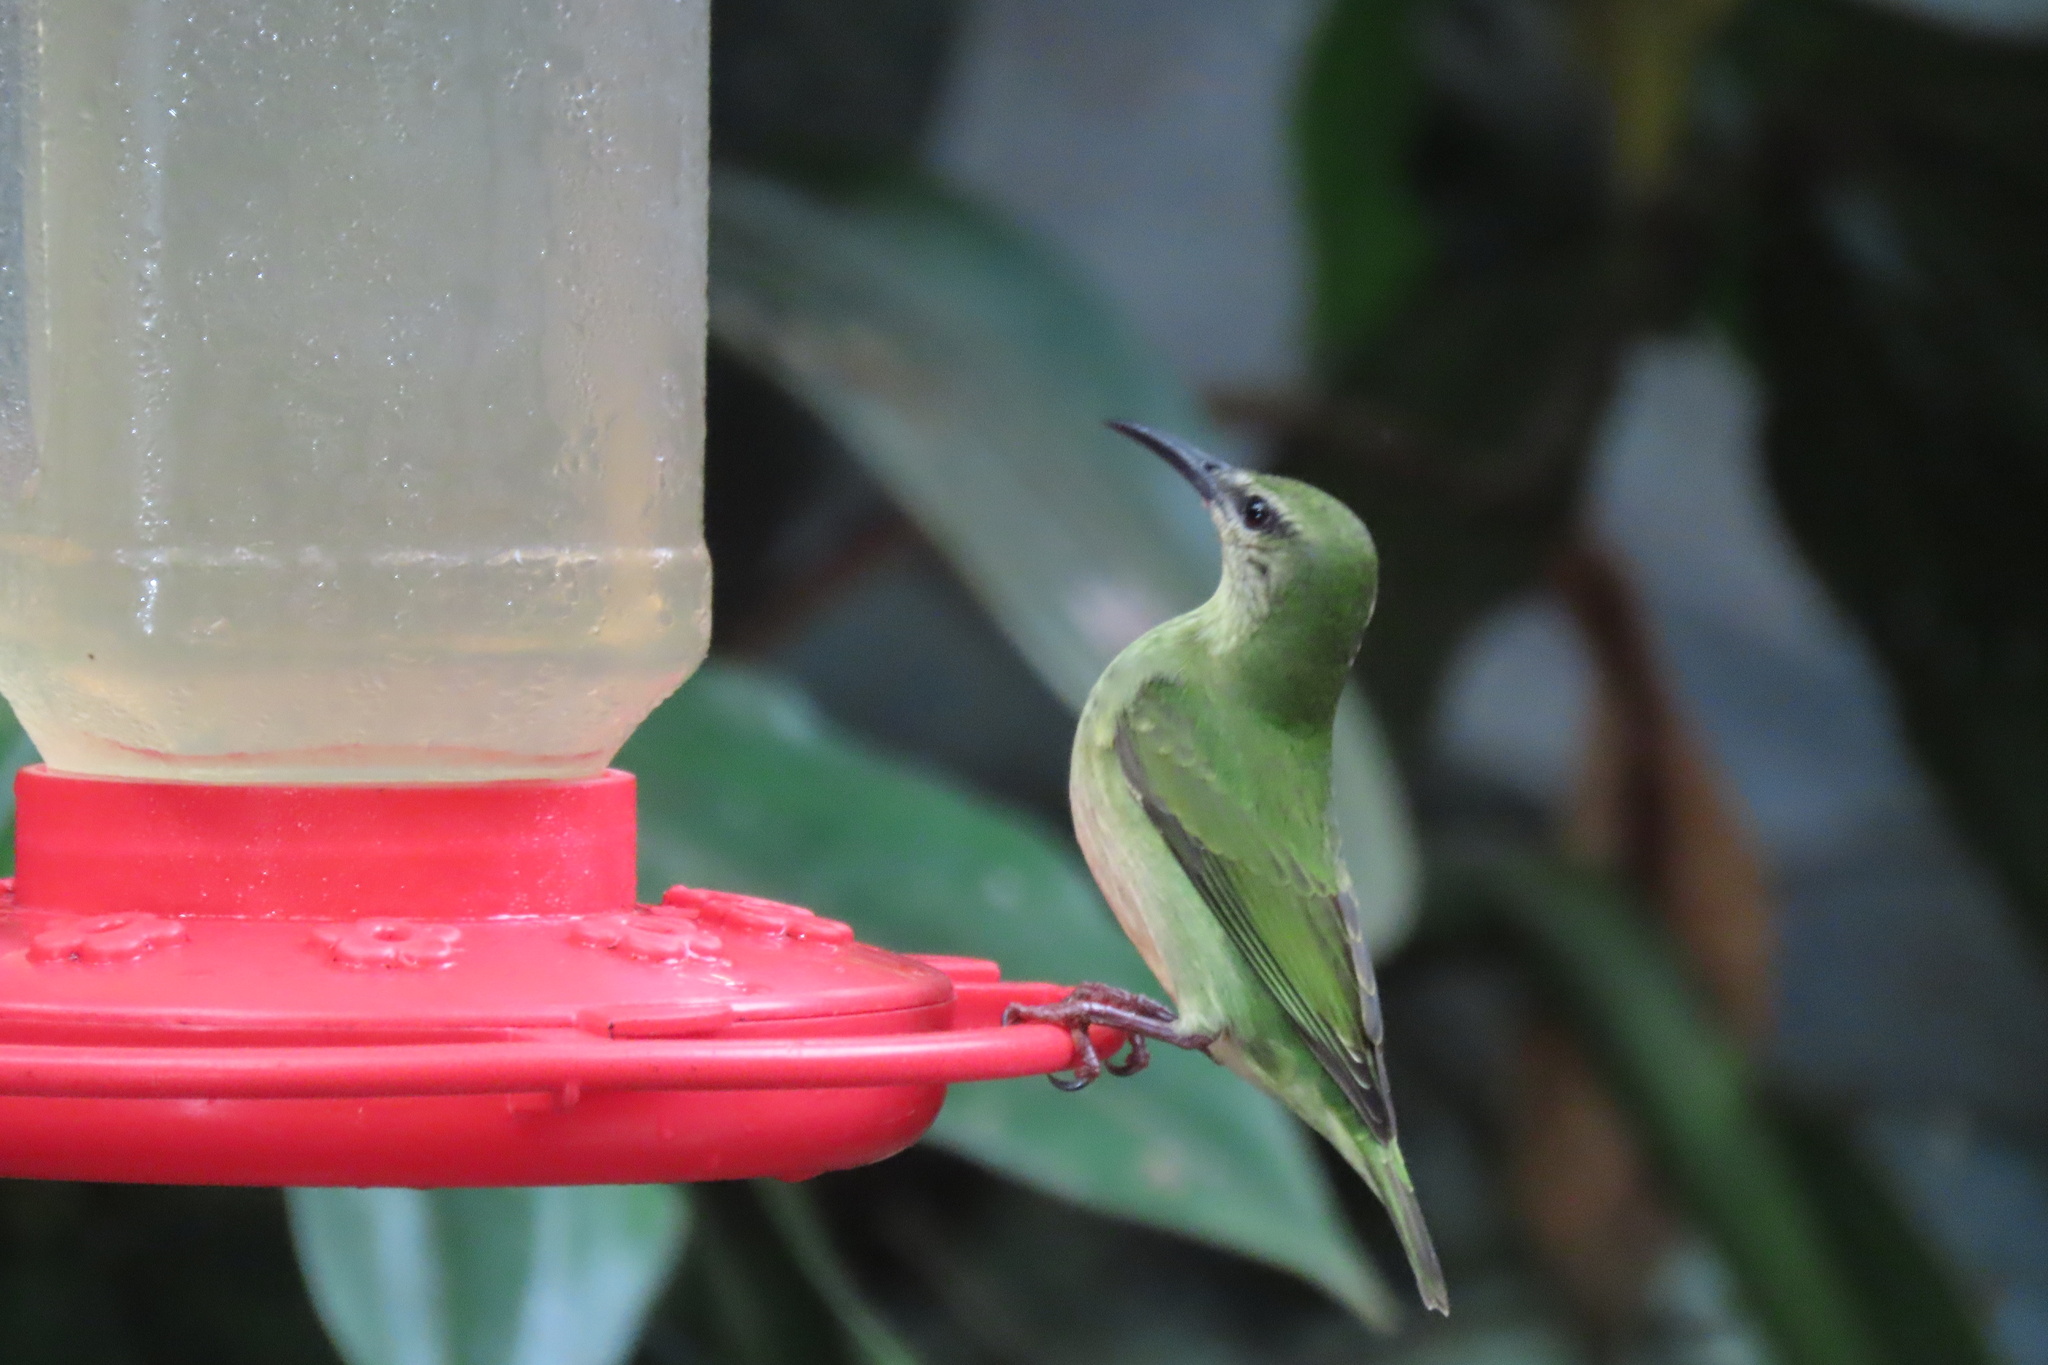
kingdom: Animalia
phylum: Chordata
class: Aves
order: Passeriformes
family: Thraupidae
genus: Cyanerpes
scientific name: Cyanerpes cyaneus
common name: Red-legged honeycreeper
